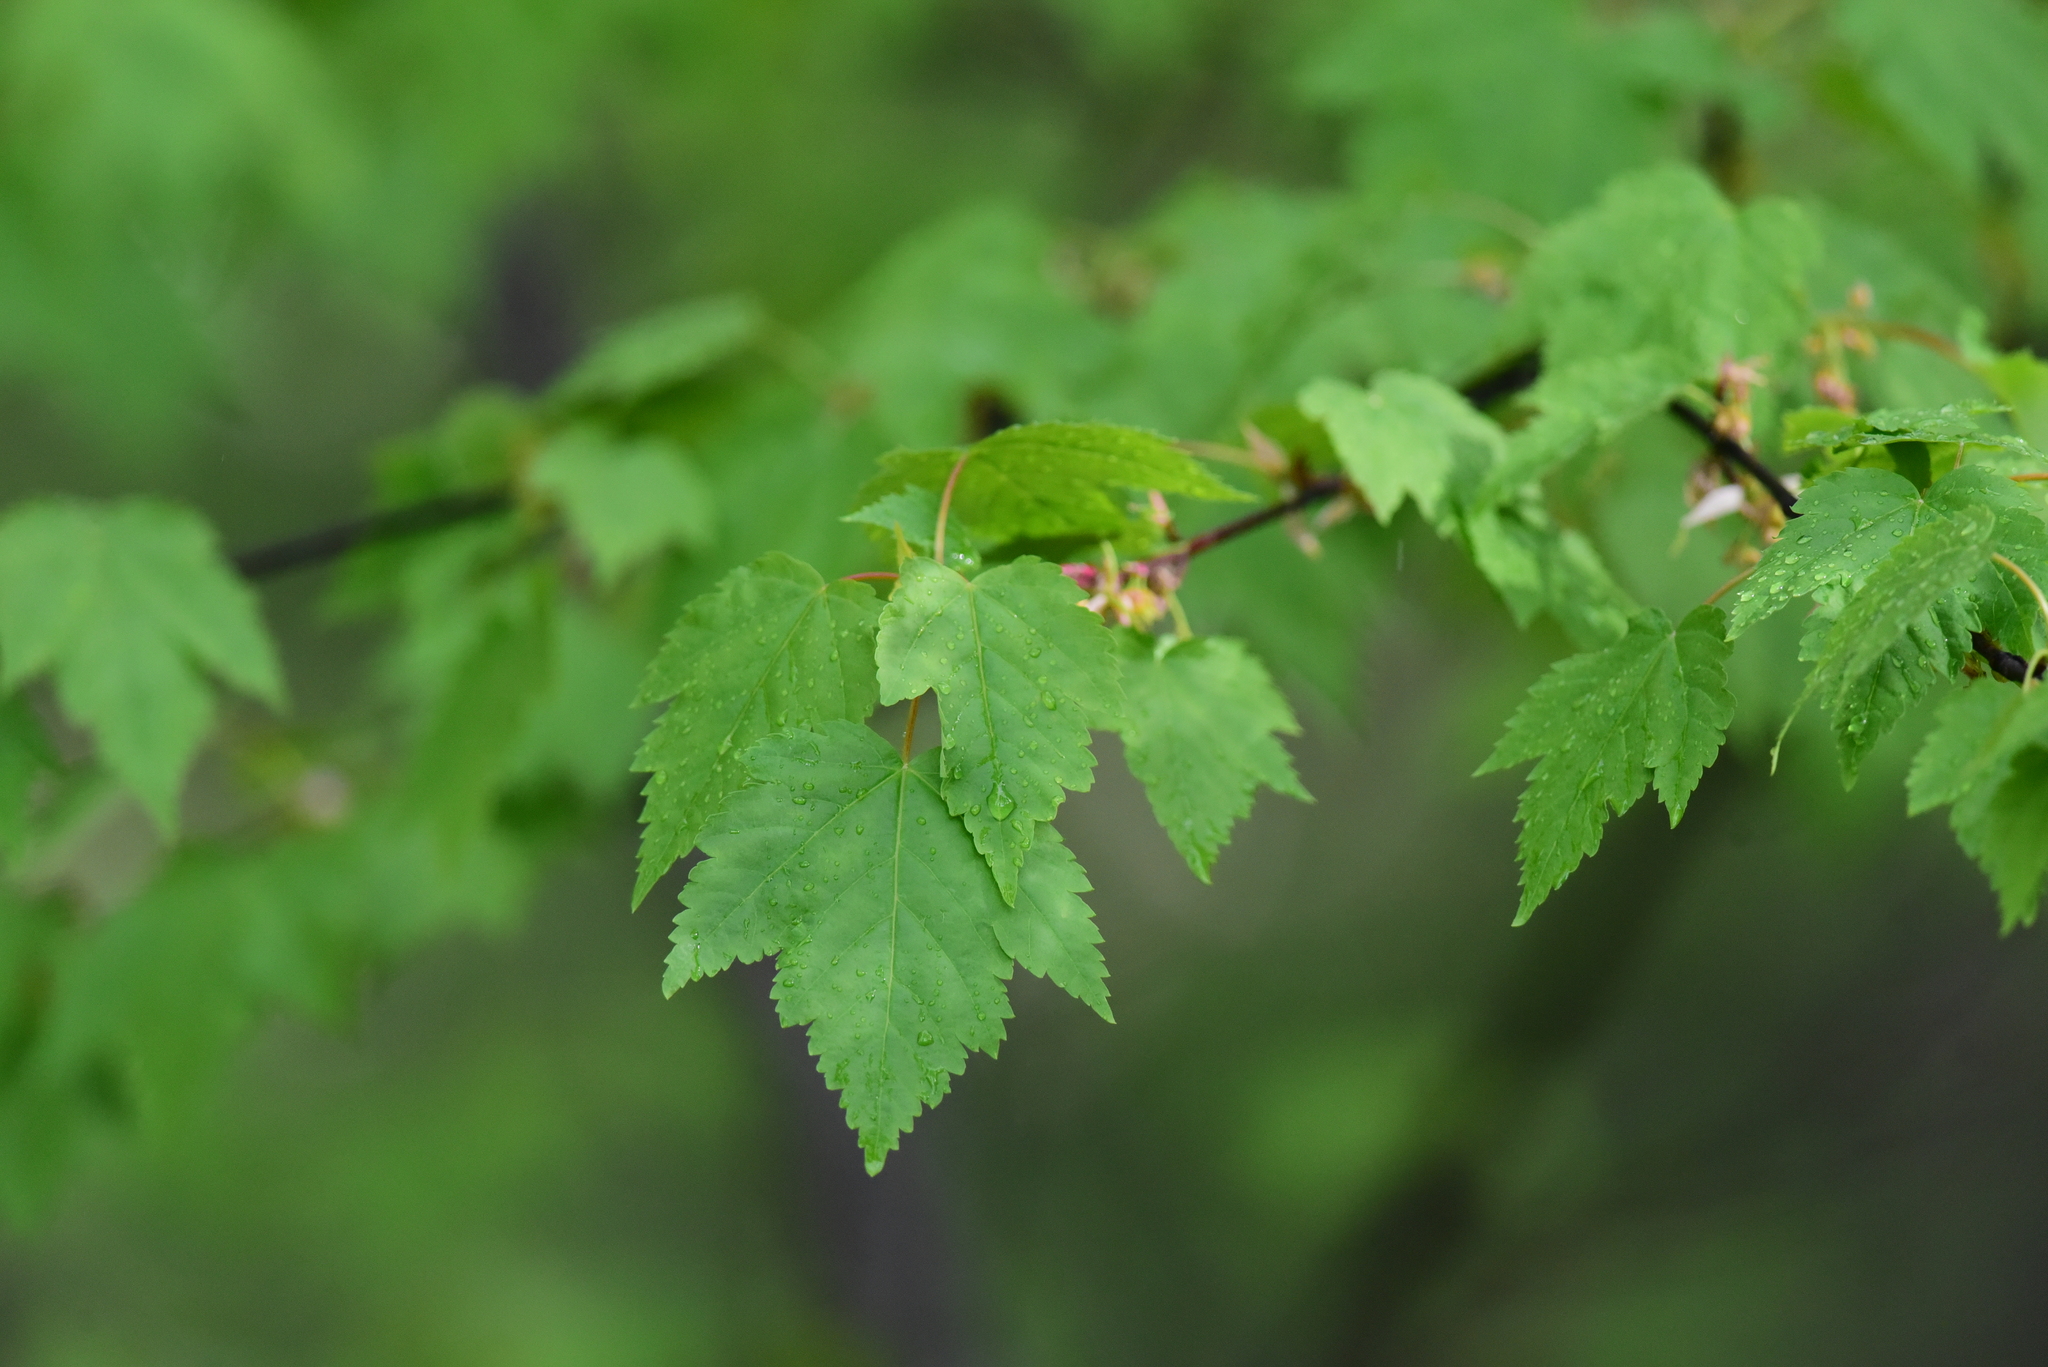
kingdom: Plantae
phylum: Tracheophyta
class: Magnoliopsida
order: Sapindales
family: Sapindaceae
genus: Acer
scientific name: Acer glabrum
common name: Rocky mountain maple
